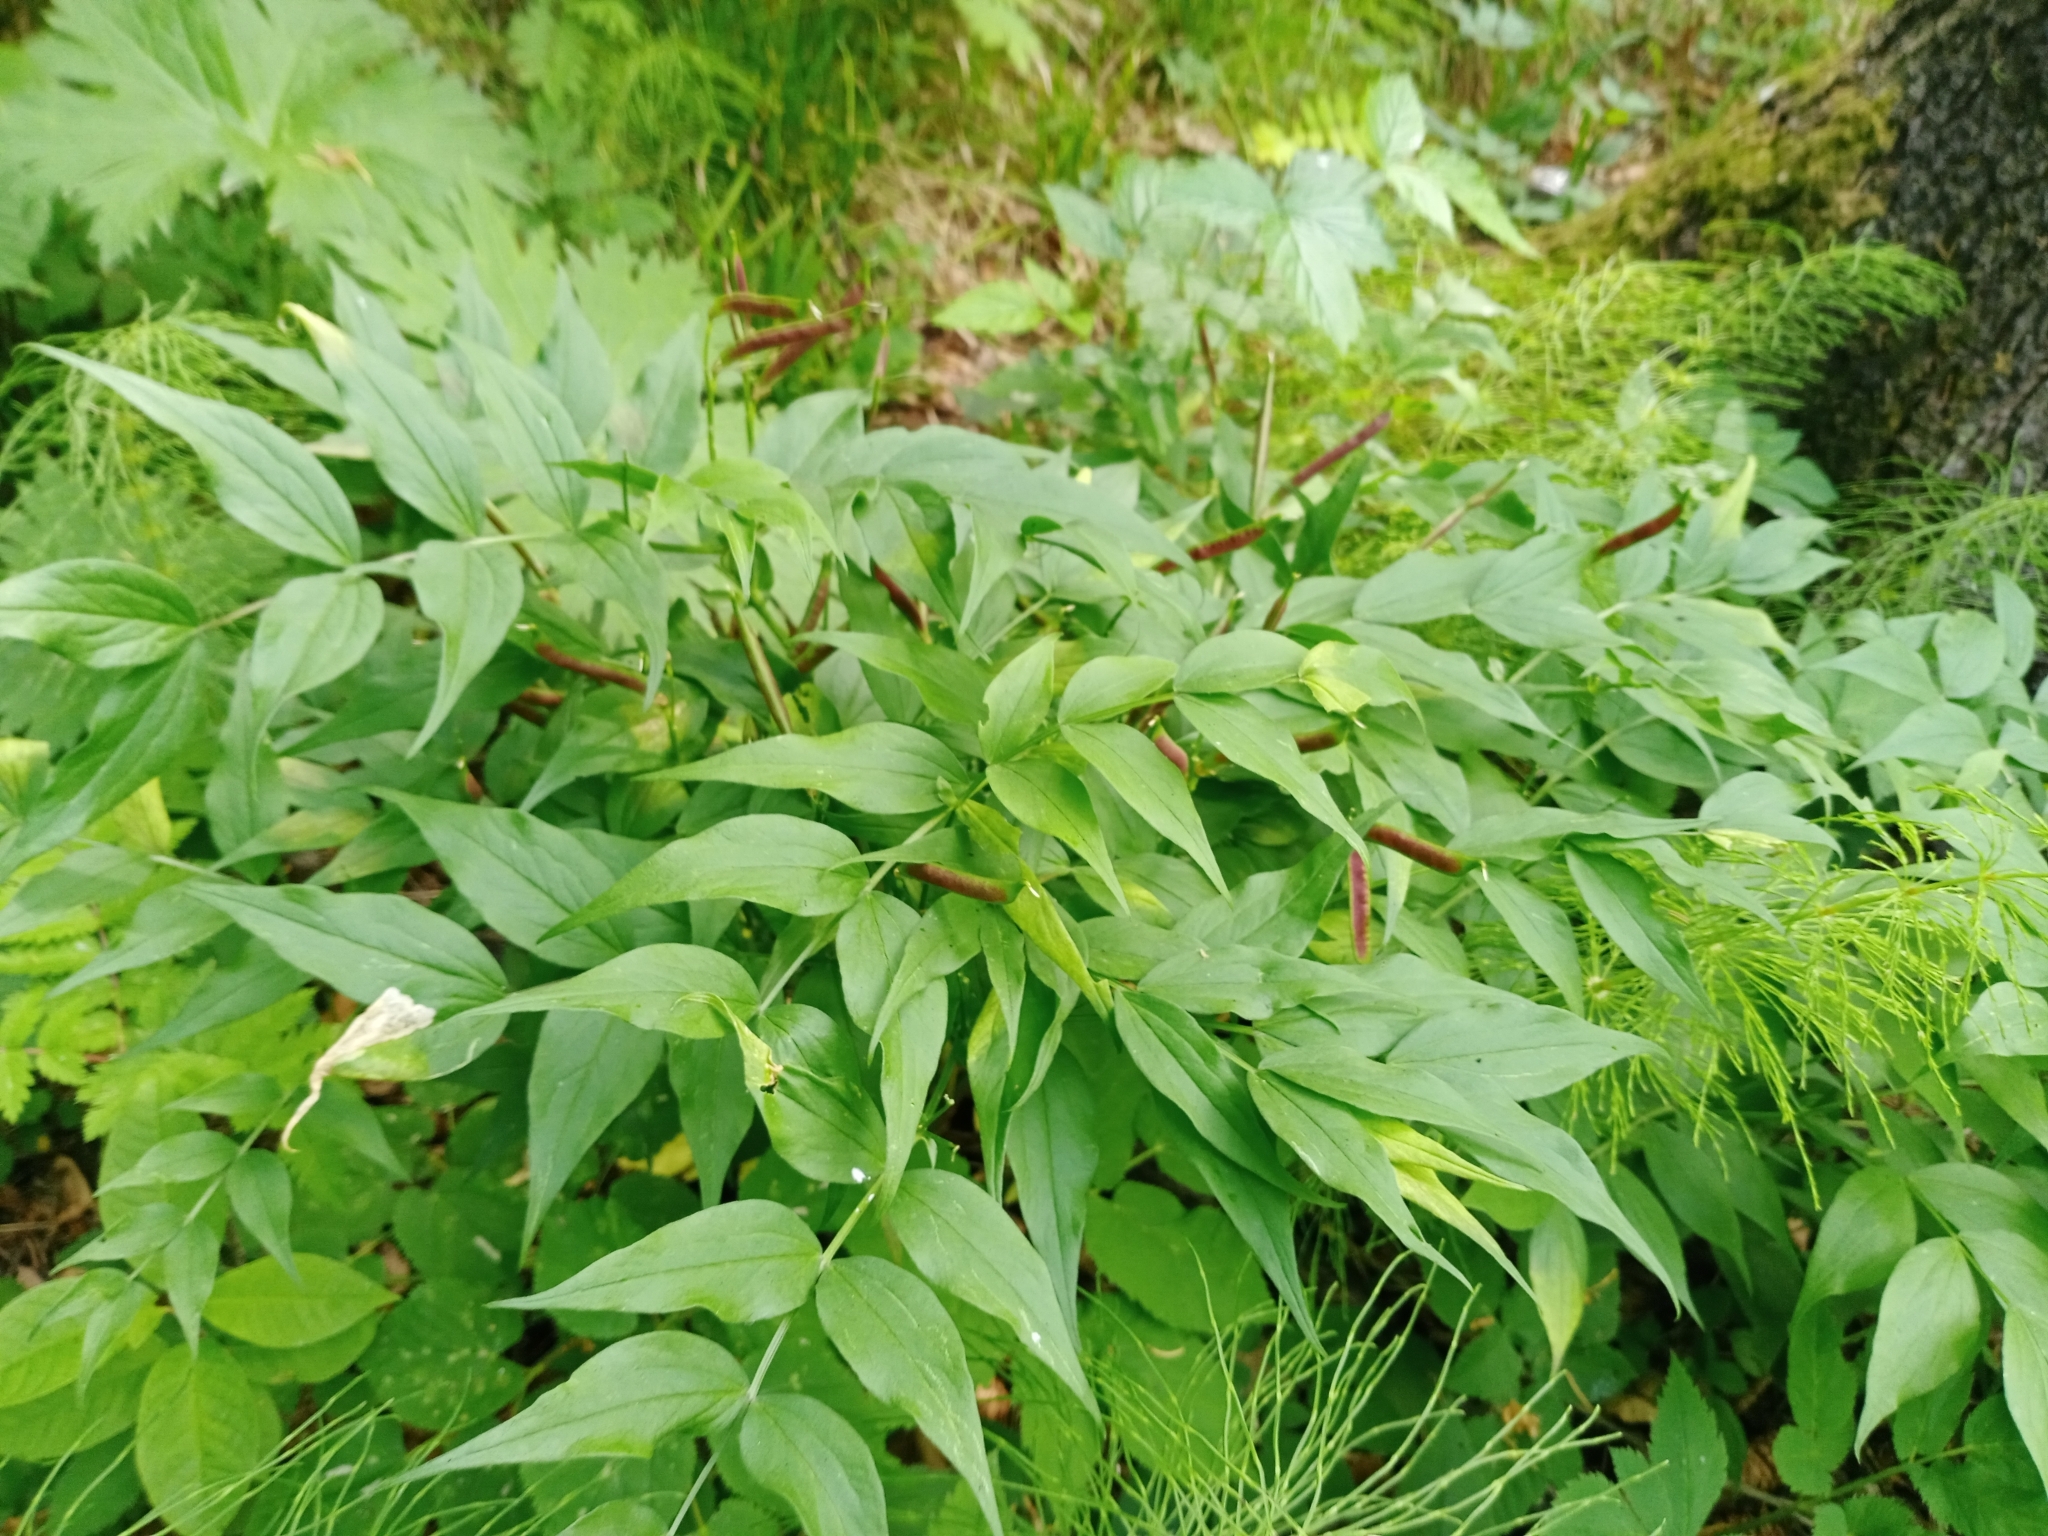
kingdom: Plantae
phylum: Tracheophyta
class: Magnoliopsida
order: Fabales
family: Fabaceae
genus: Lathyrus
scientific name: Lathyrus vernus
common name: Spring pea
